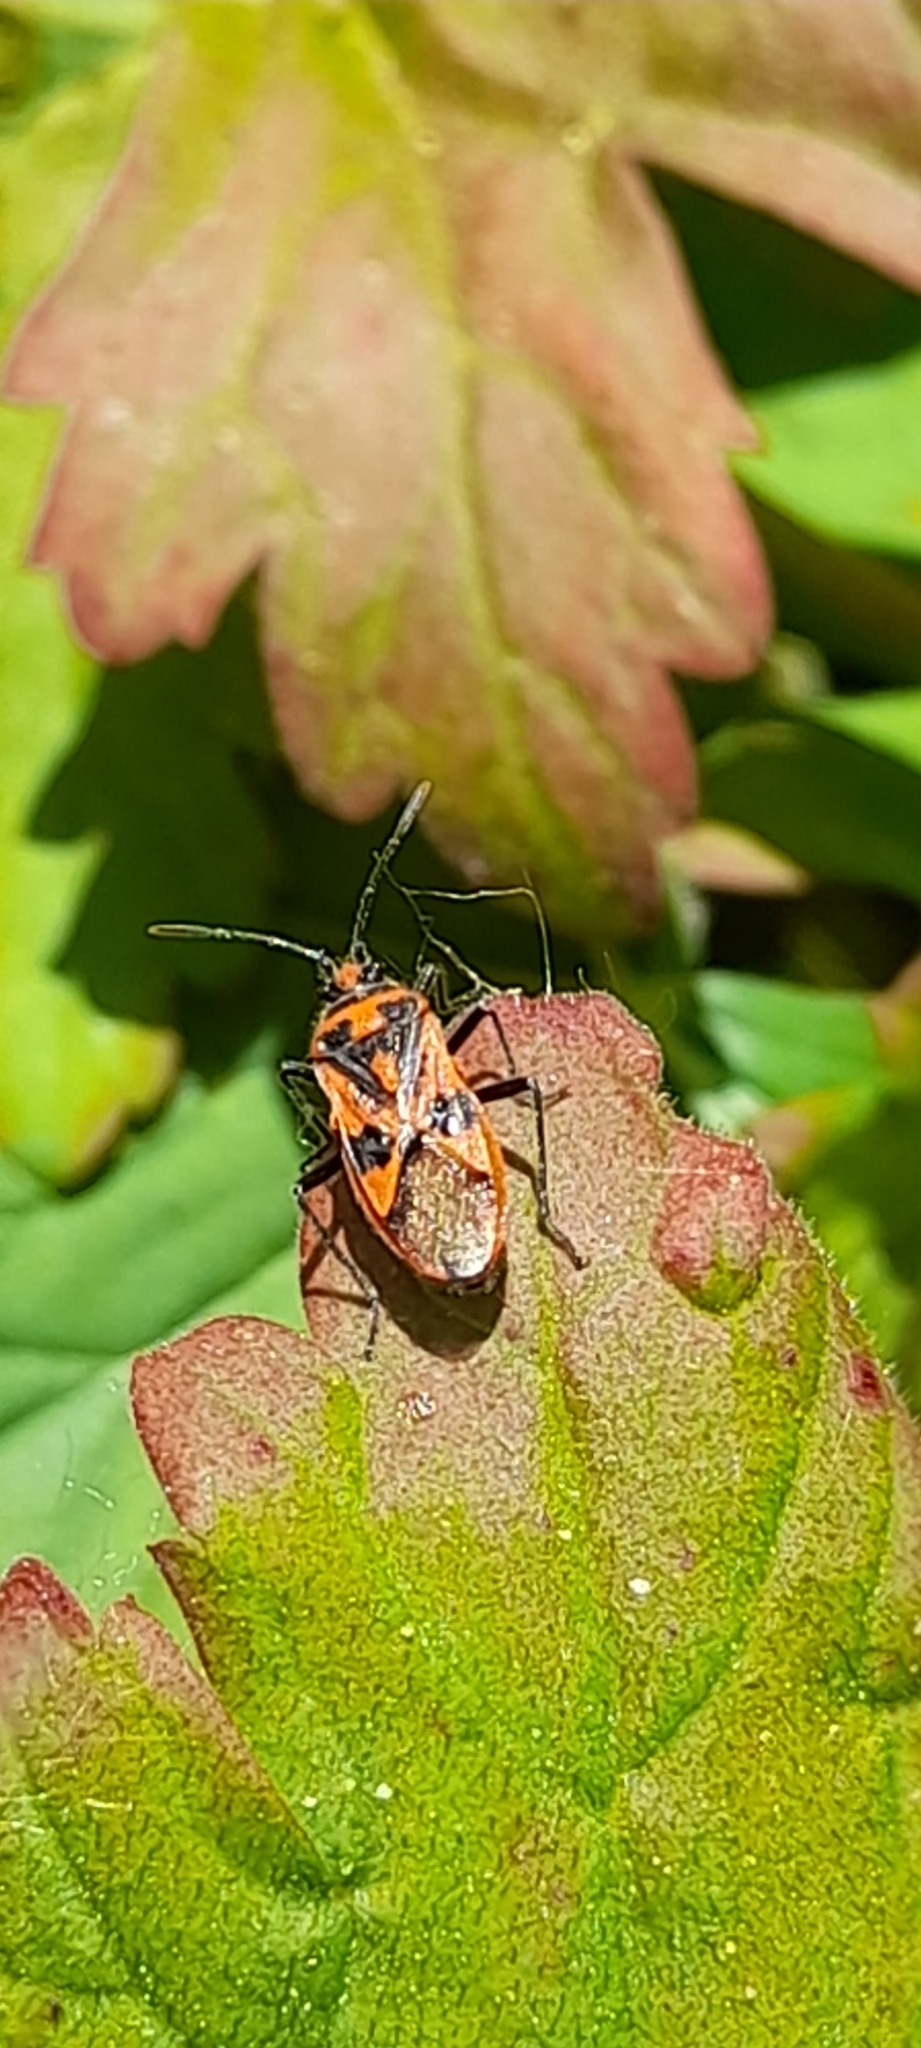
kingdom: Animalia
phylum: Arthropoda
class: Insecta
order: Hemiptera
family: Rhopalidae
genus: Corizus
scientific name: Corizus hyoscyami
